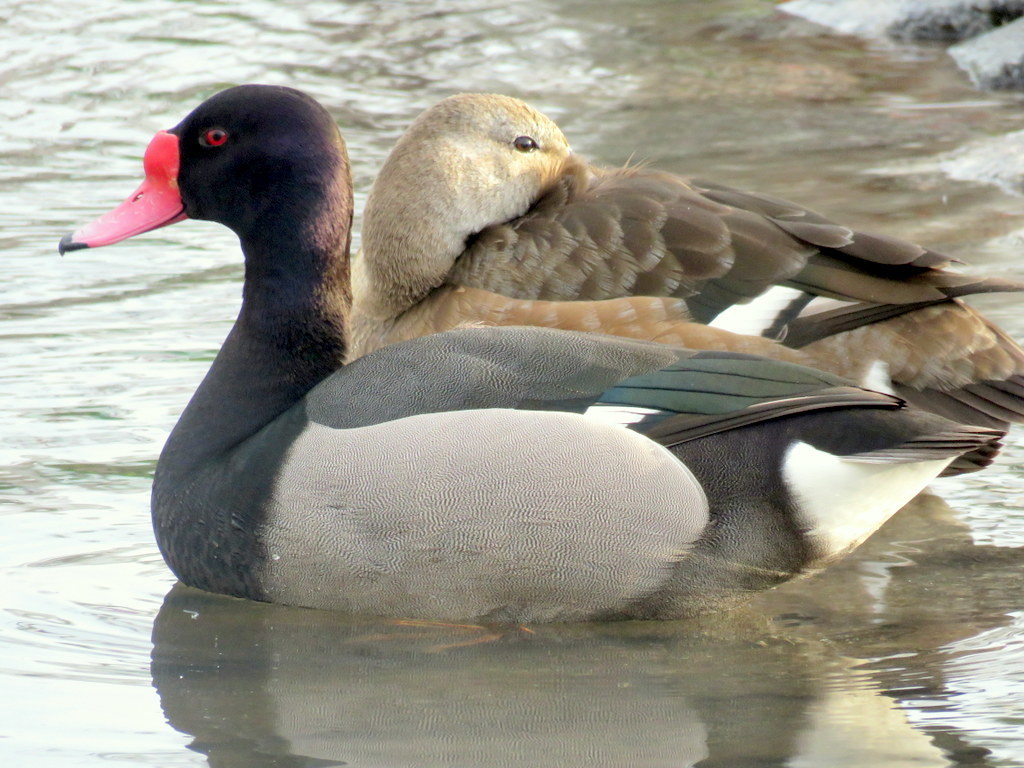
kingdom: Animalia
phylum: Chordata
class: Aves
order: Anseriformes
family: Anatidae
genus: Netta
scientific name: Netta peposaca
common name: Rosy-billed pochard
